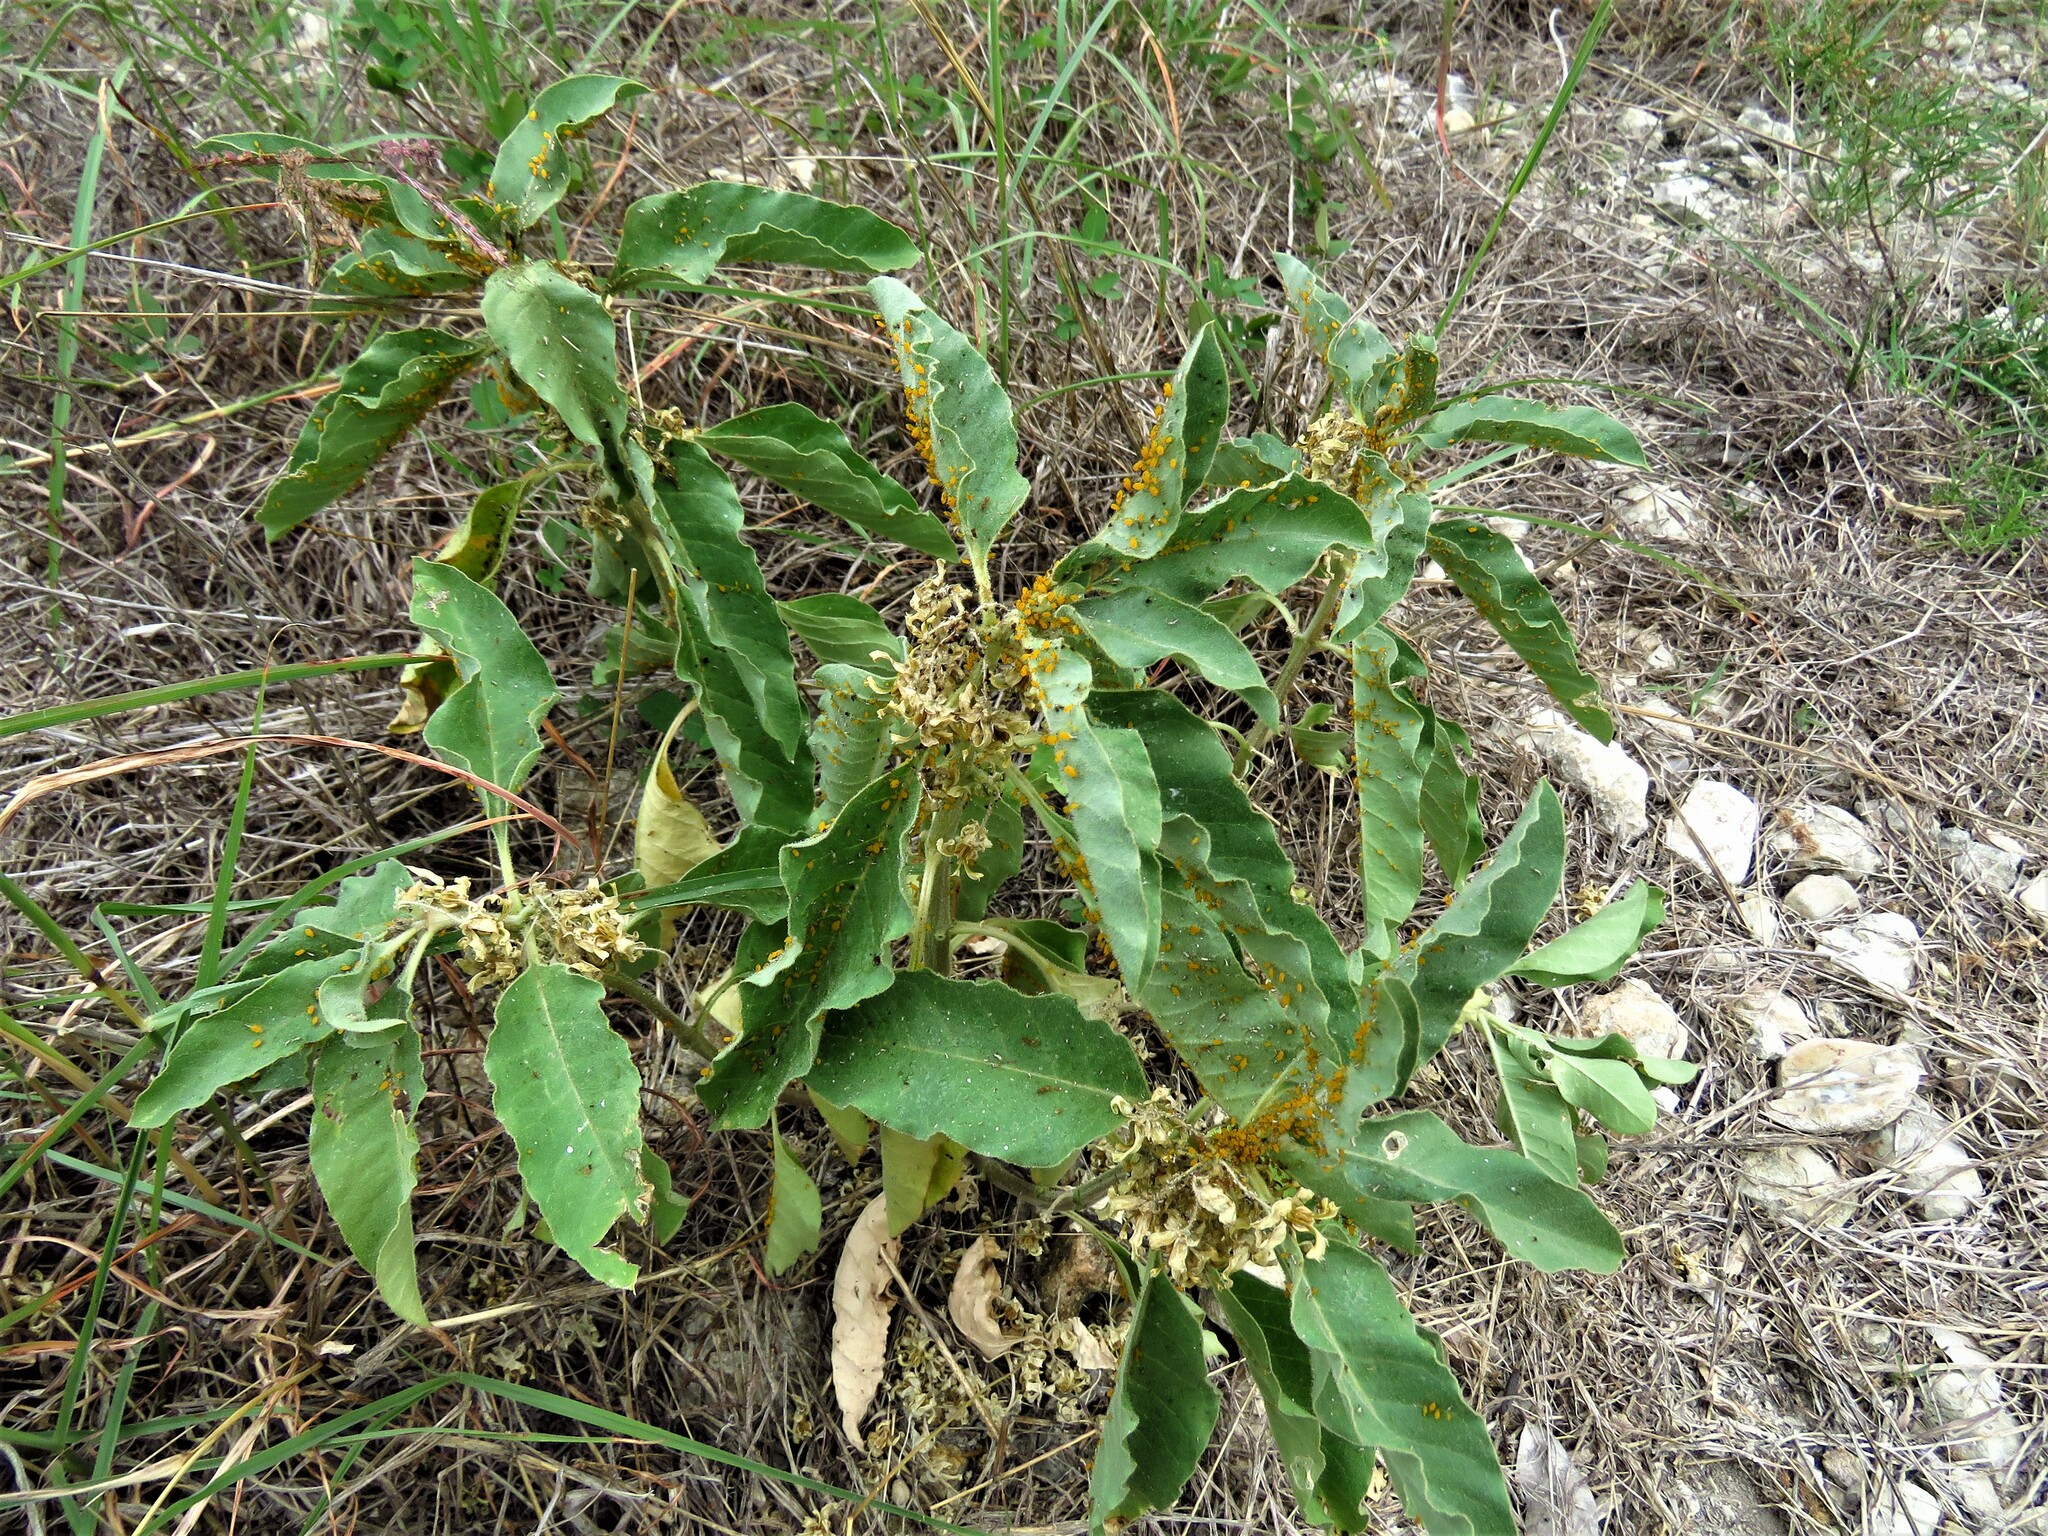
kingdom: Plantae
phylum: Tracheophyta
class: Magnoliopsida
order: Gentianales
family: Apocynaceae
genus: Asclepias
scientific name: Asclepias oenotheroides
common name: Zizotes milkweed
